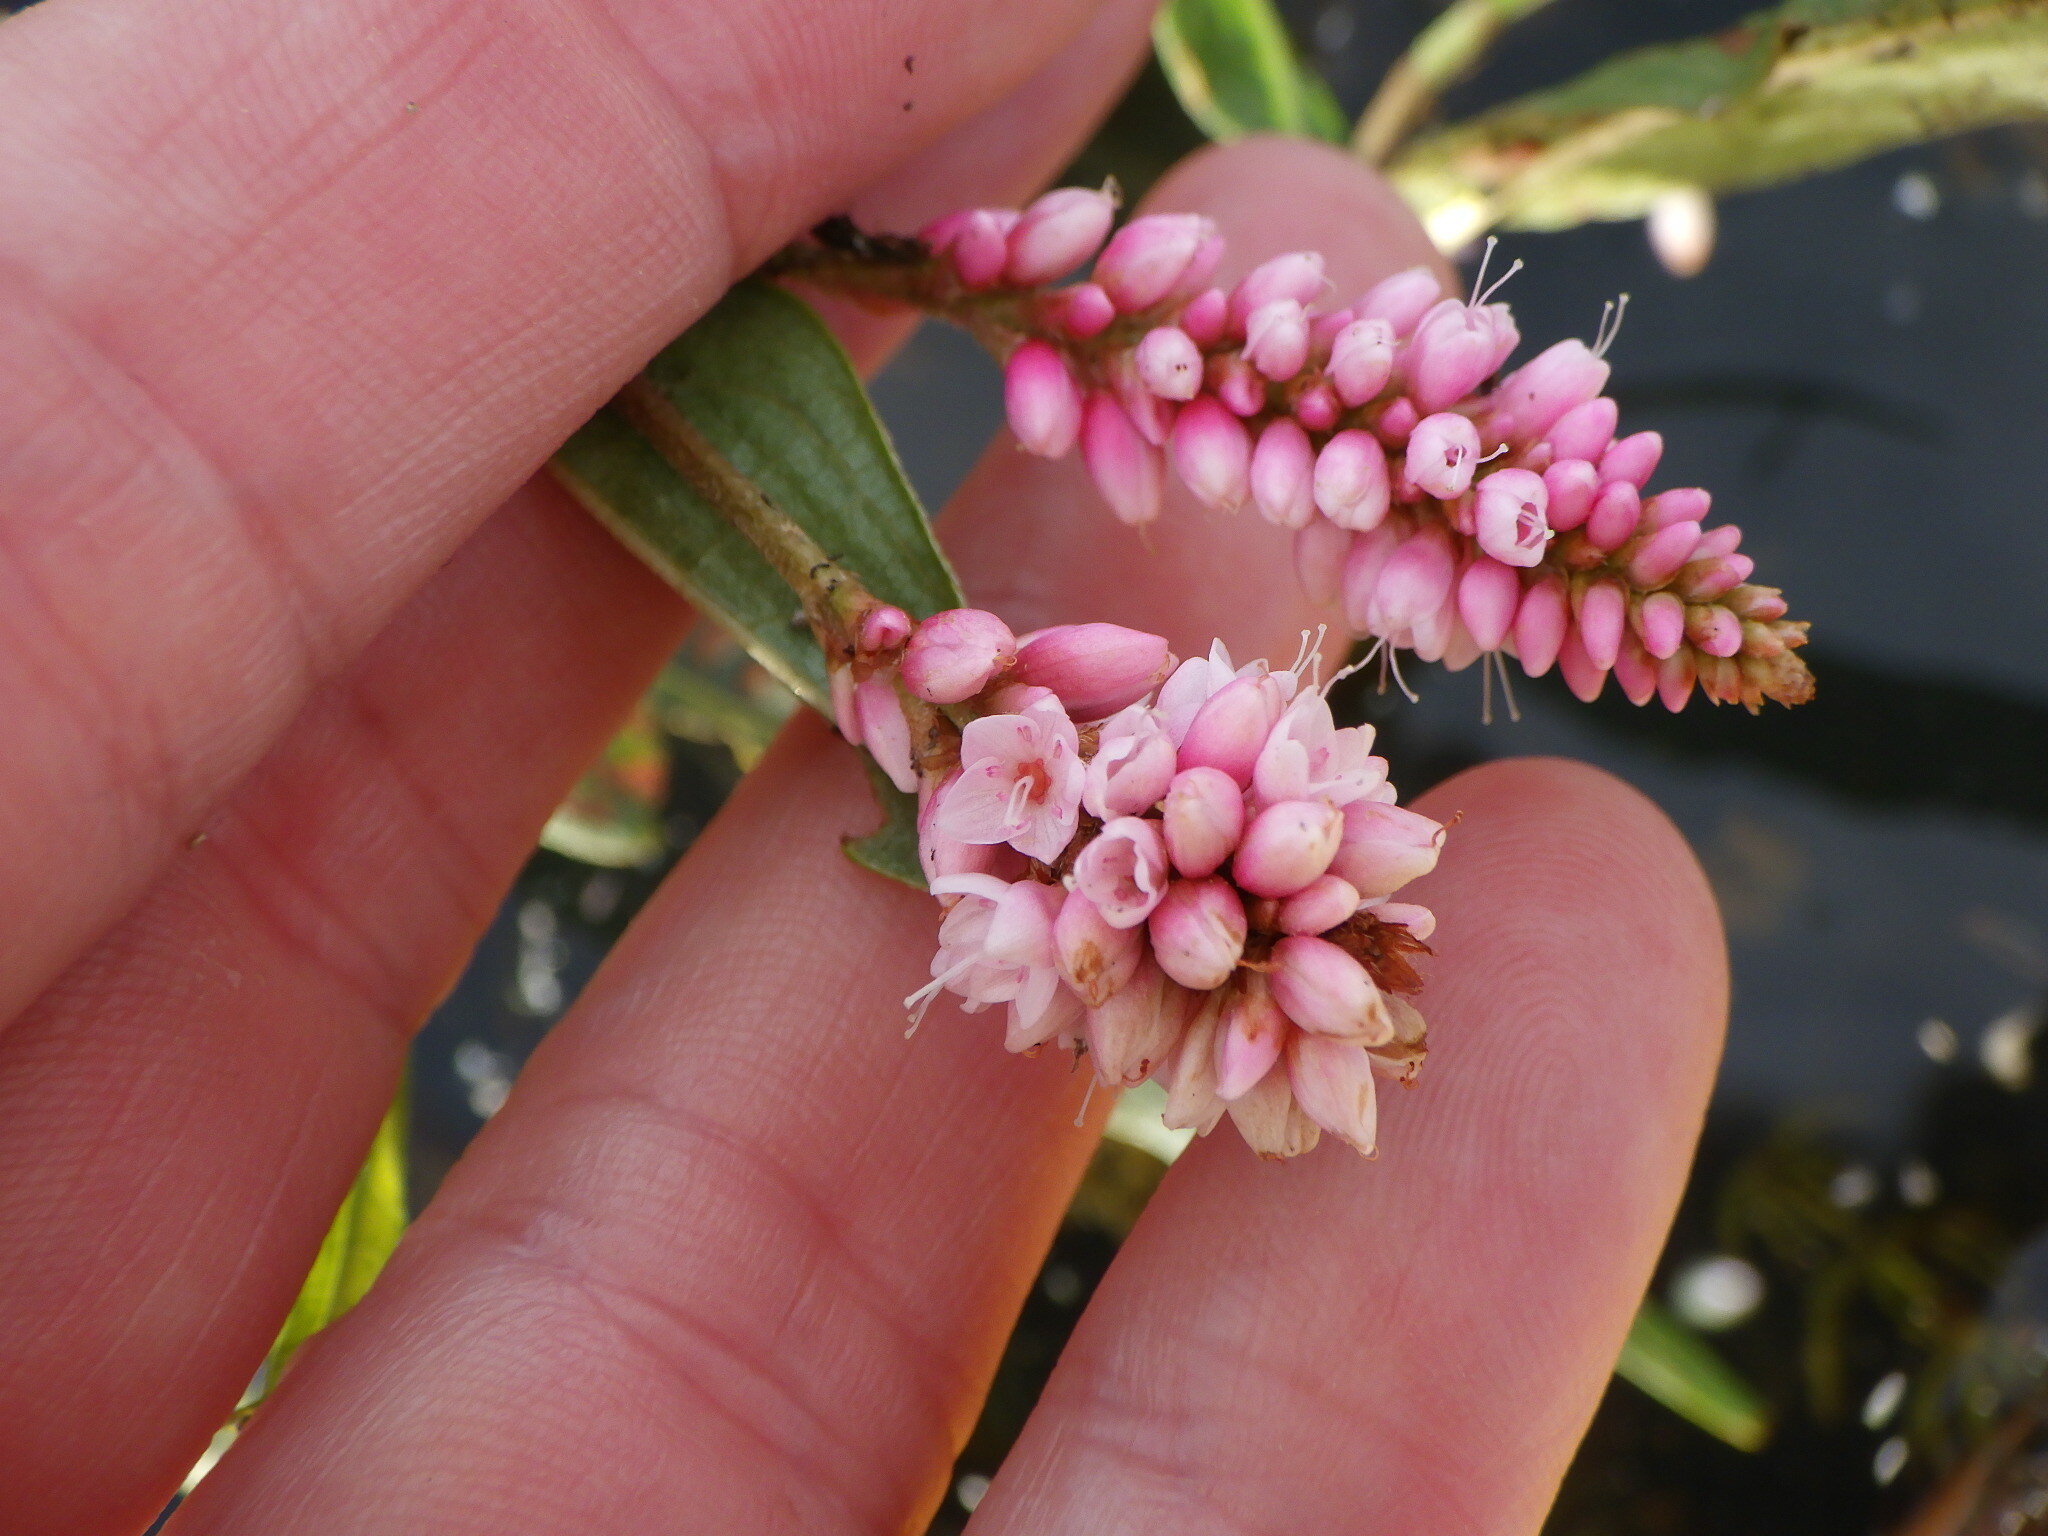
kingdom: Plantae
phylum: Tracheophyta
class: Magnoliopsida
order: Caryophyllales
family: Polygonaceae
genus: Persicaria
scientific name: Persicaria amphibia
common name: Amphibious bistort
